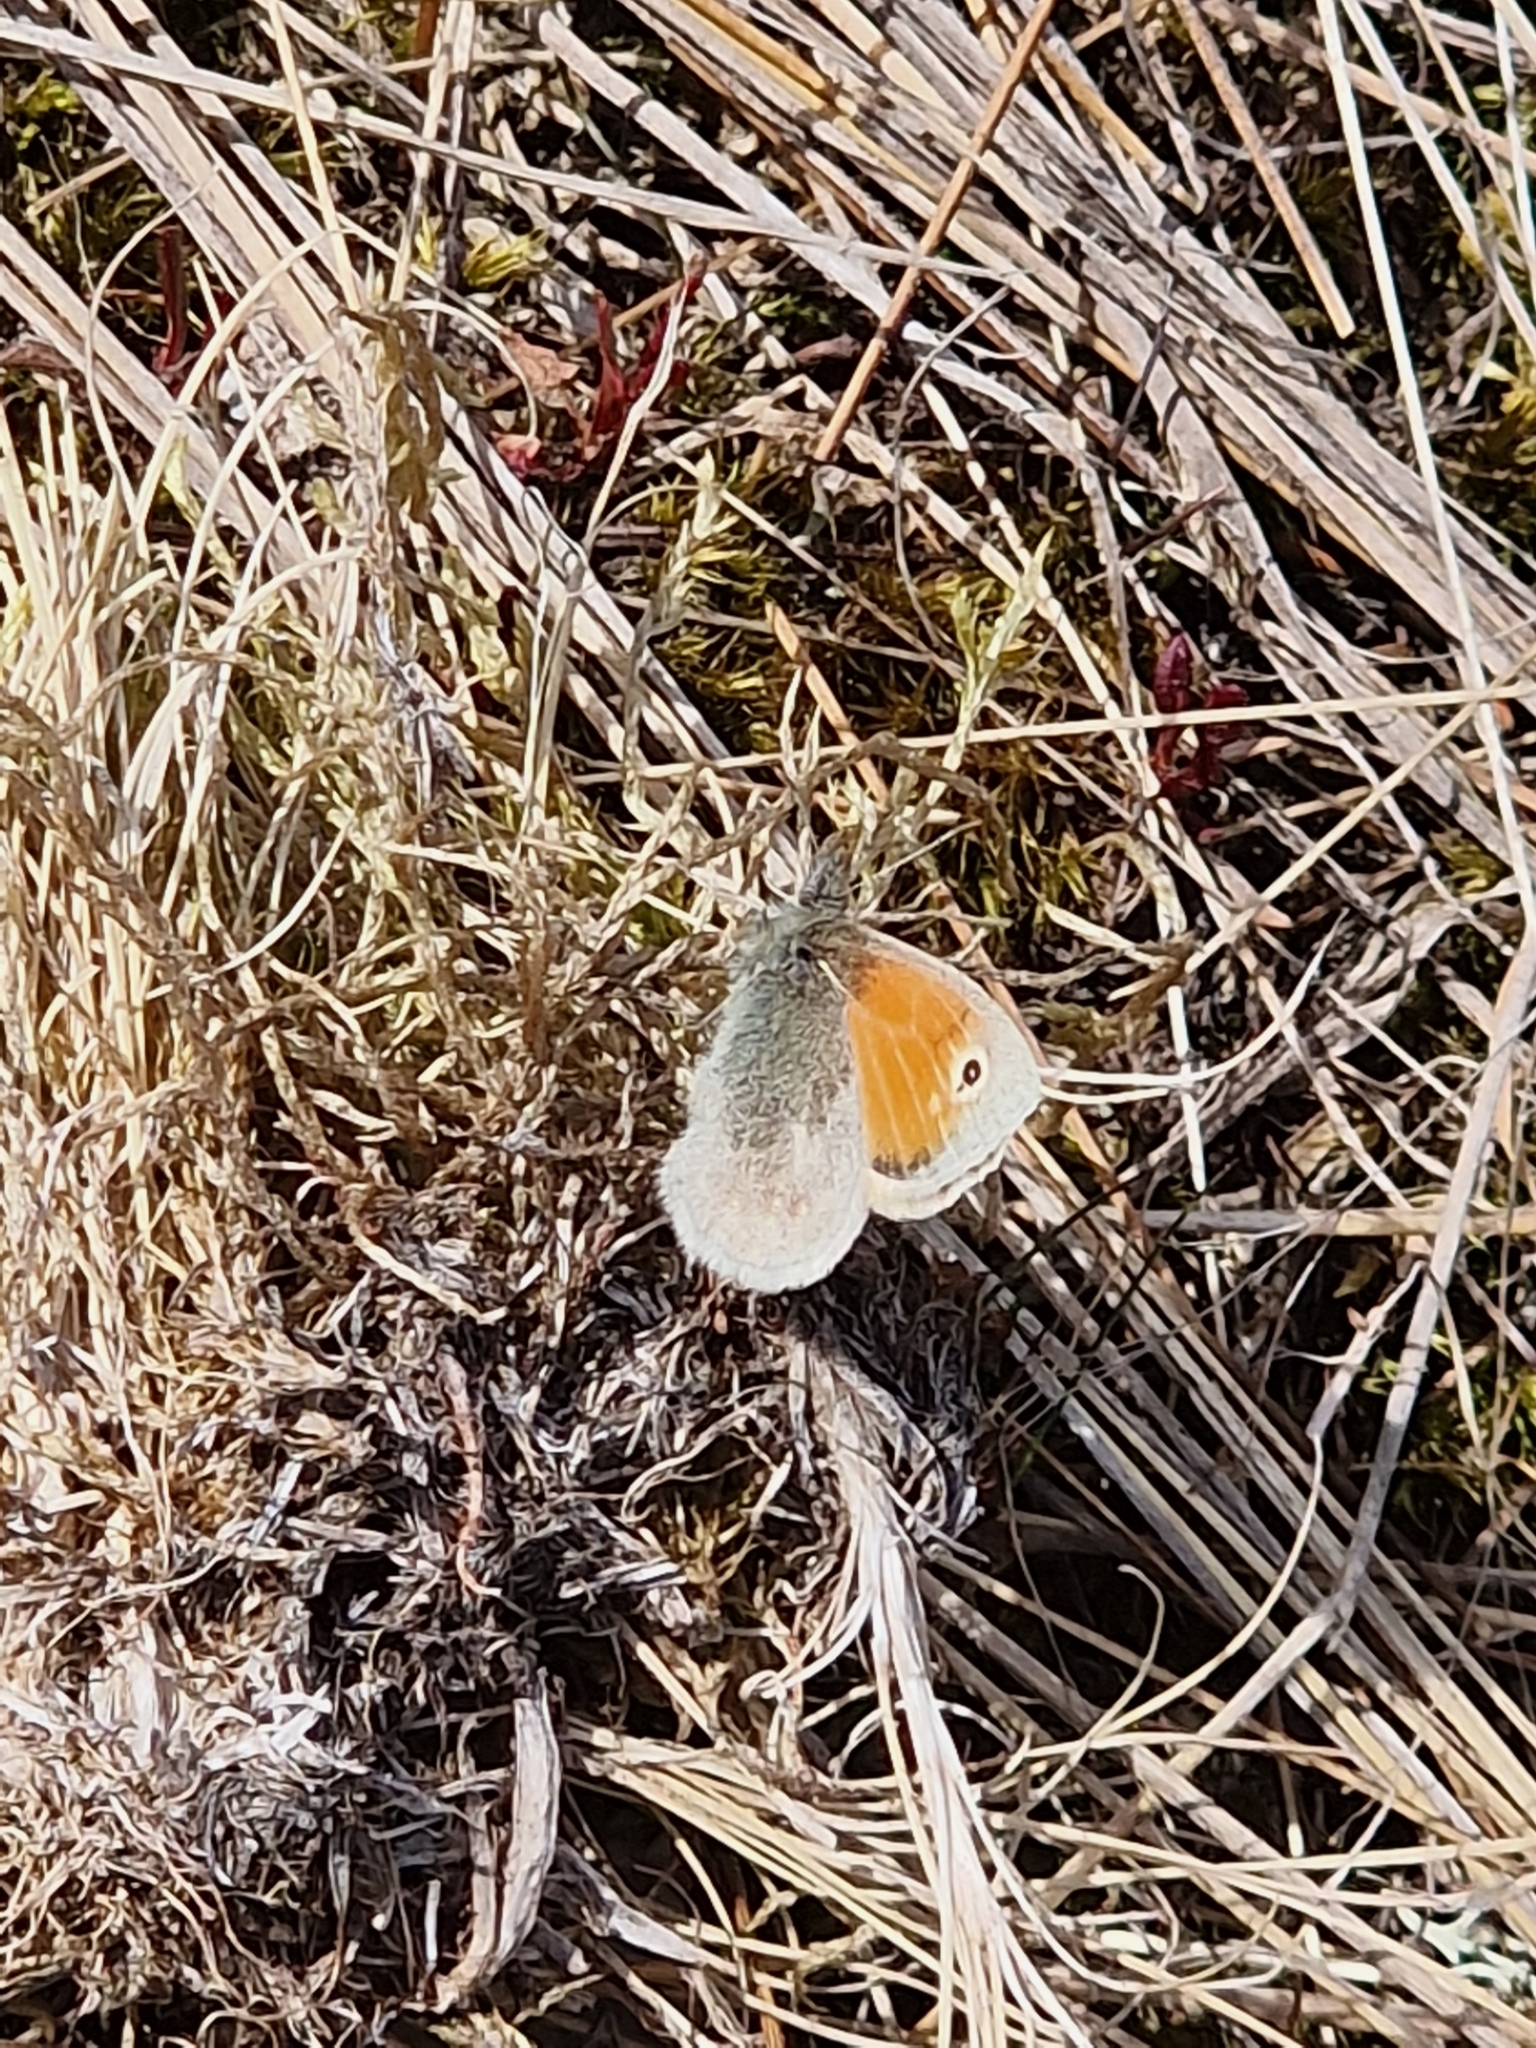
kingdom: Animalia
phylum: Arthropoda
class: Insecta
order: Lepidoptera
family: Nymphalidae
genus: Coenonympha
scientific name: Coenonympha pamphilus
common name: Small heath
